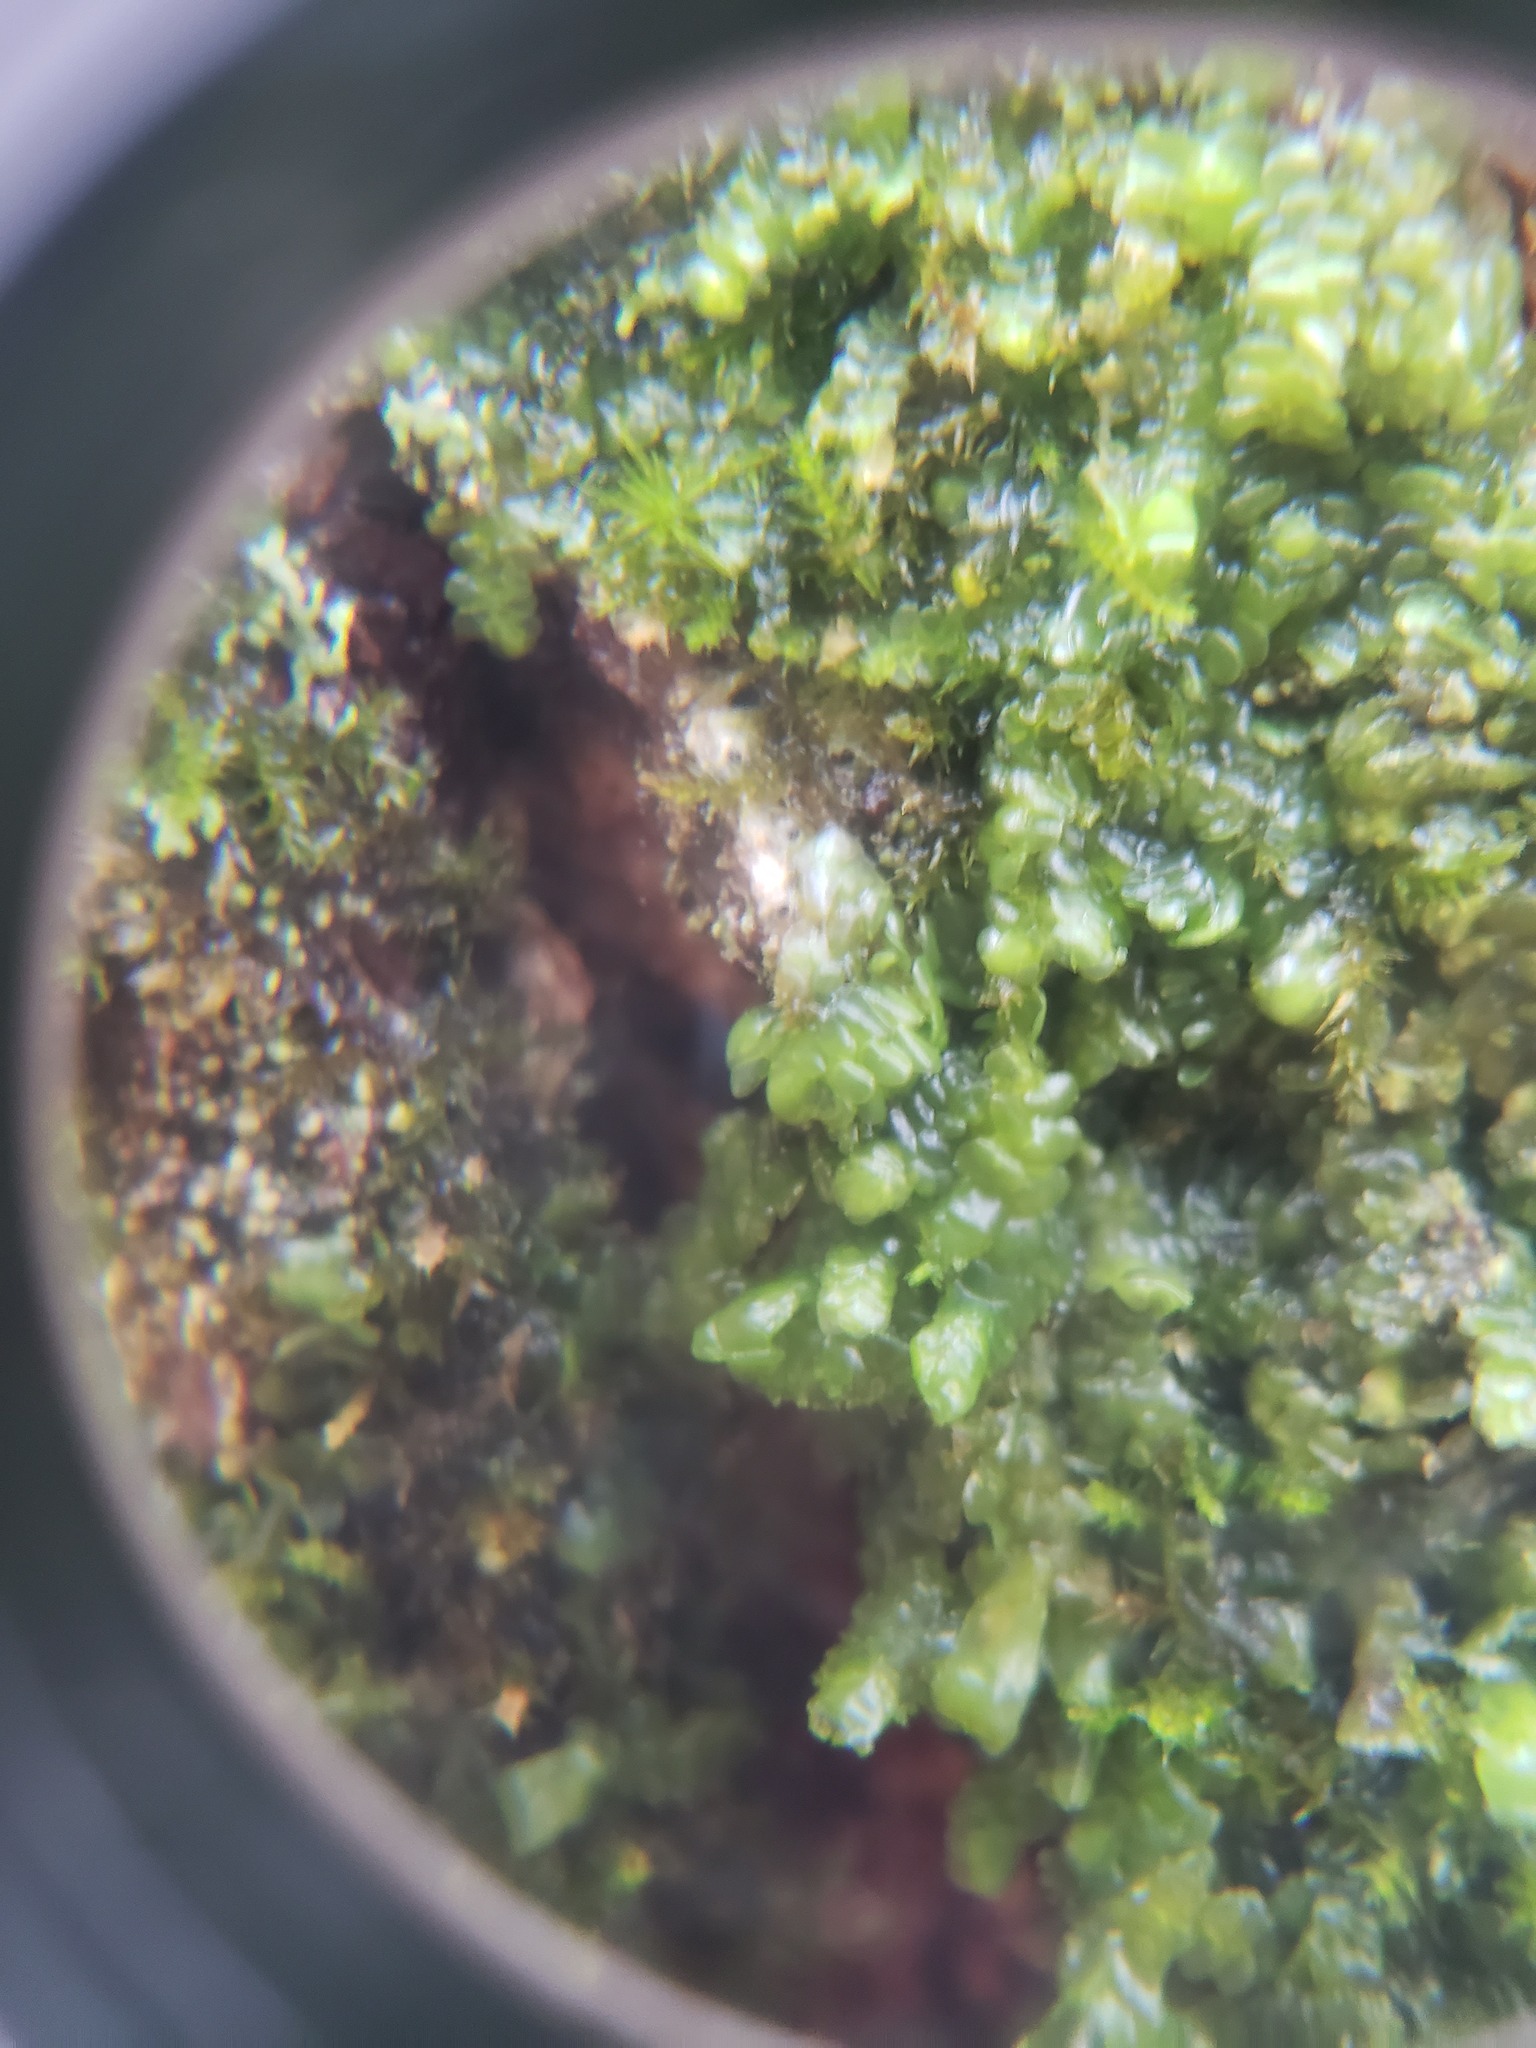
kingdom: Plantae
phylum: Marchantiophyta
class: Jungermanniopsida
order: Porellales
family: Radulaceae
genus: Radula
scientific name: Radula complanata
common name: Flat-leaved scalewort
